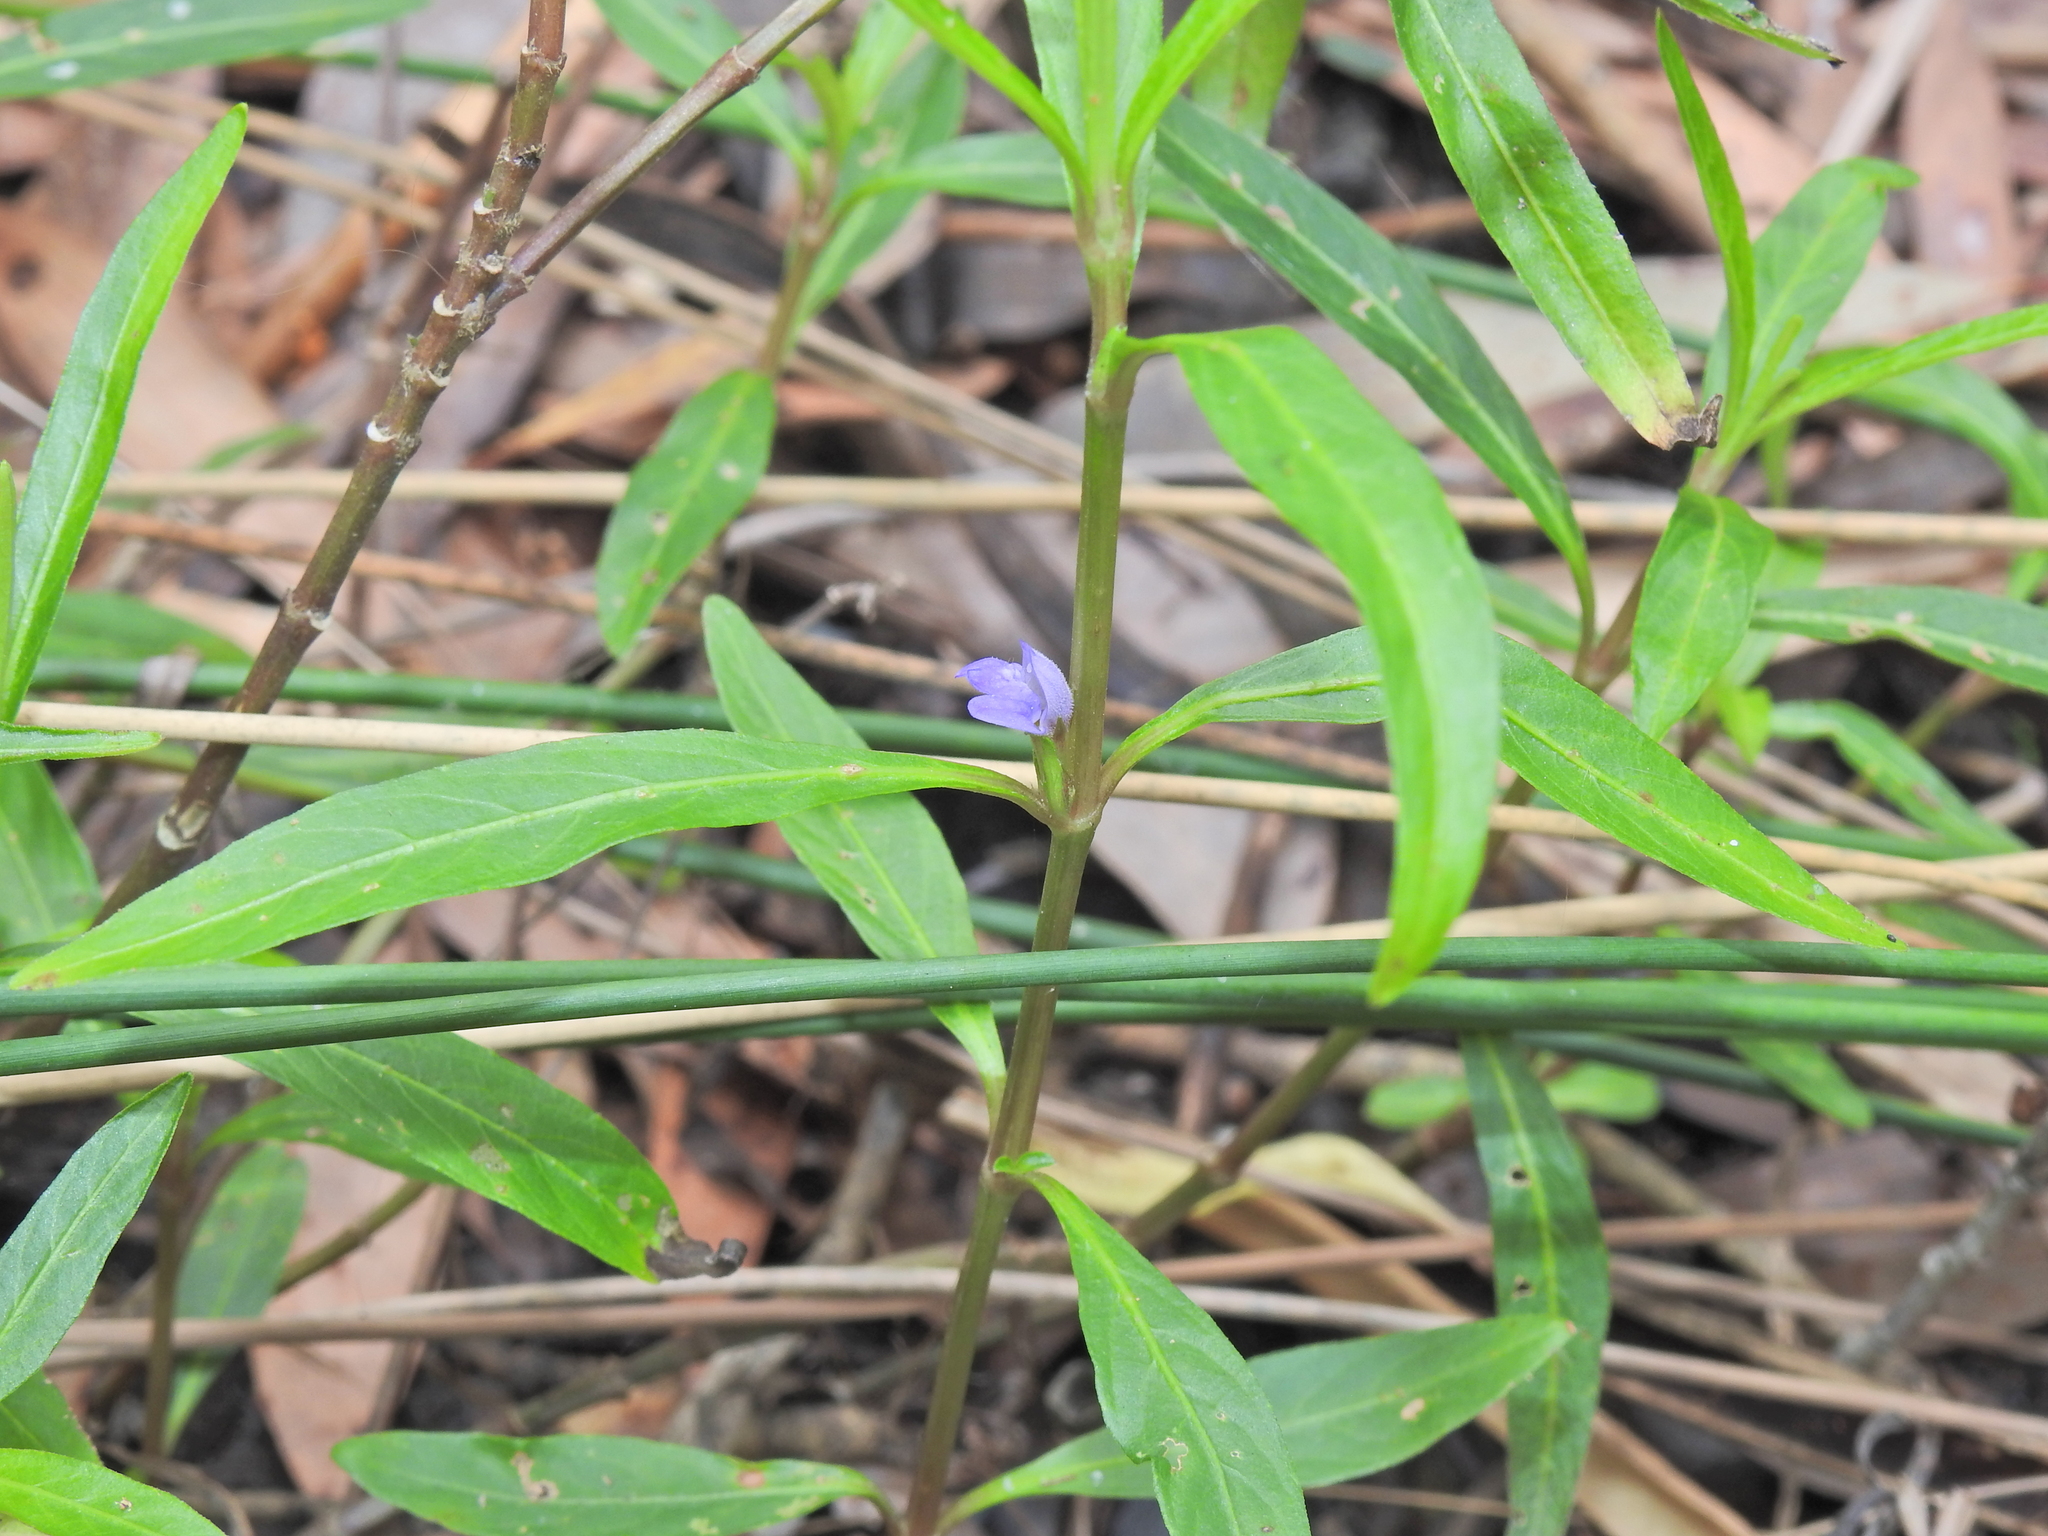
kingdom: Plantae
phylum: Tracheophyta
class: Magnoliopsida
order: Lamiales
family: Acanthaceae
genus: Hygrophila
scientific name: Hygrophila angustifolia
